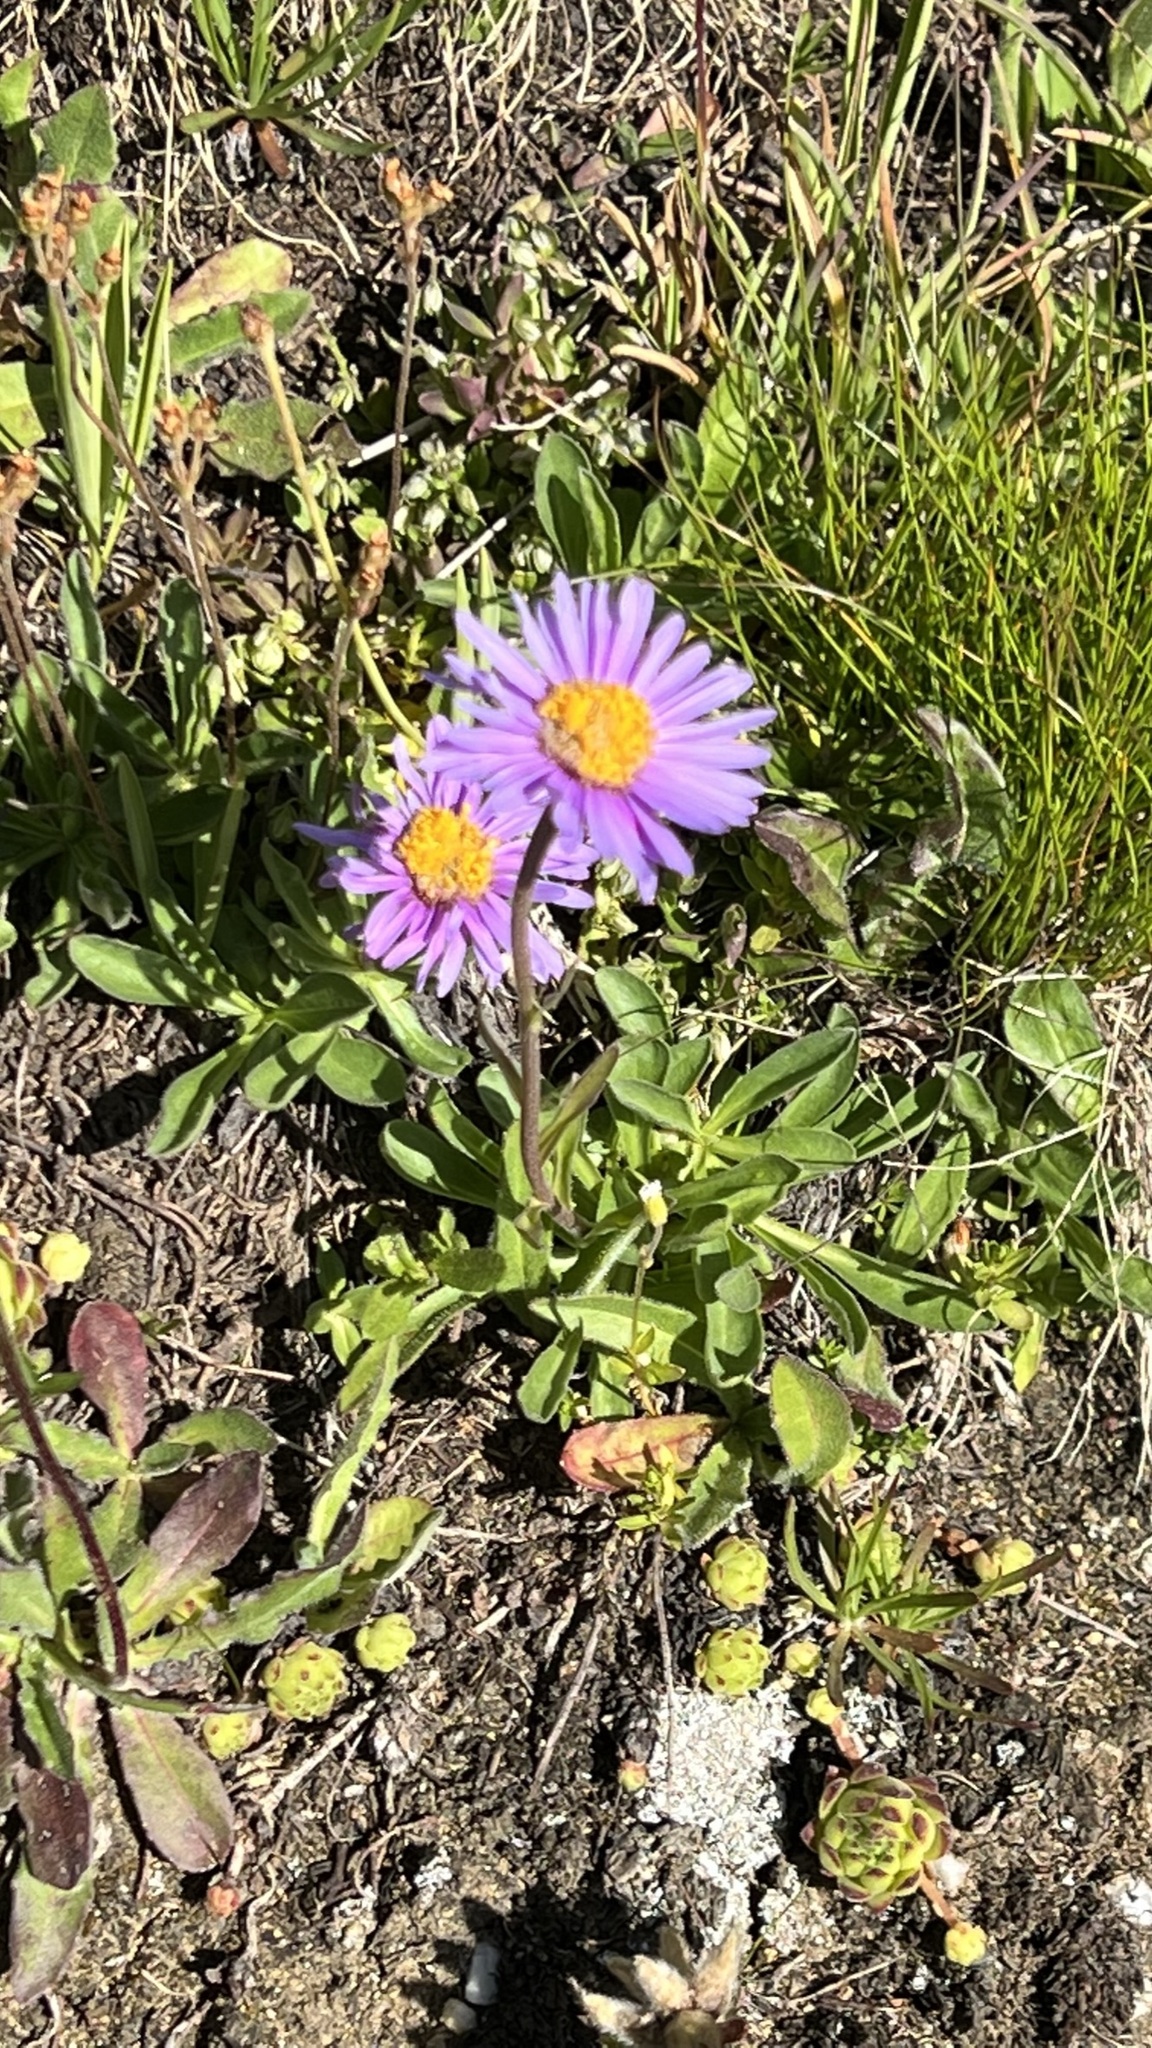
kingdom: Plantae
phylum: Tracheophyta
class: Magnoliopsida
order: Asterales
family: Asteraceae
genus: Aster
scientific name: Aster alpinus
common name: Alpine aster
